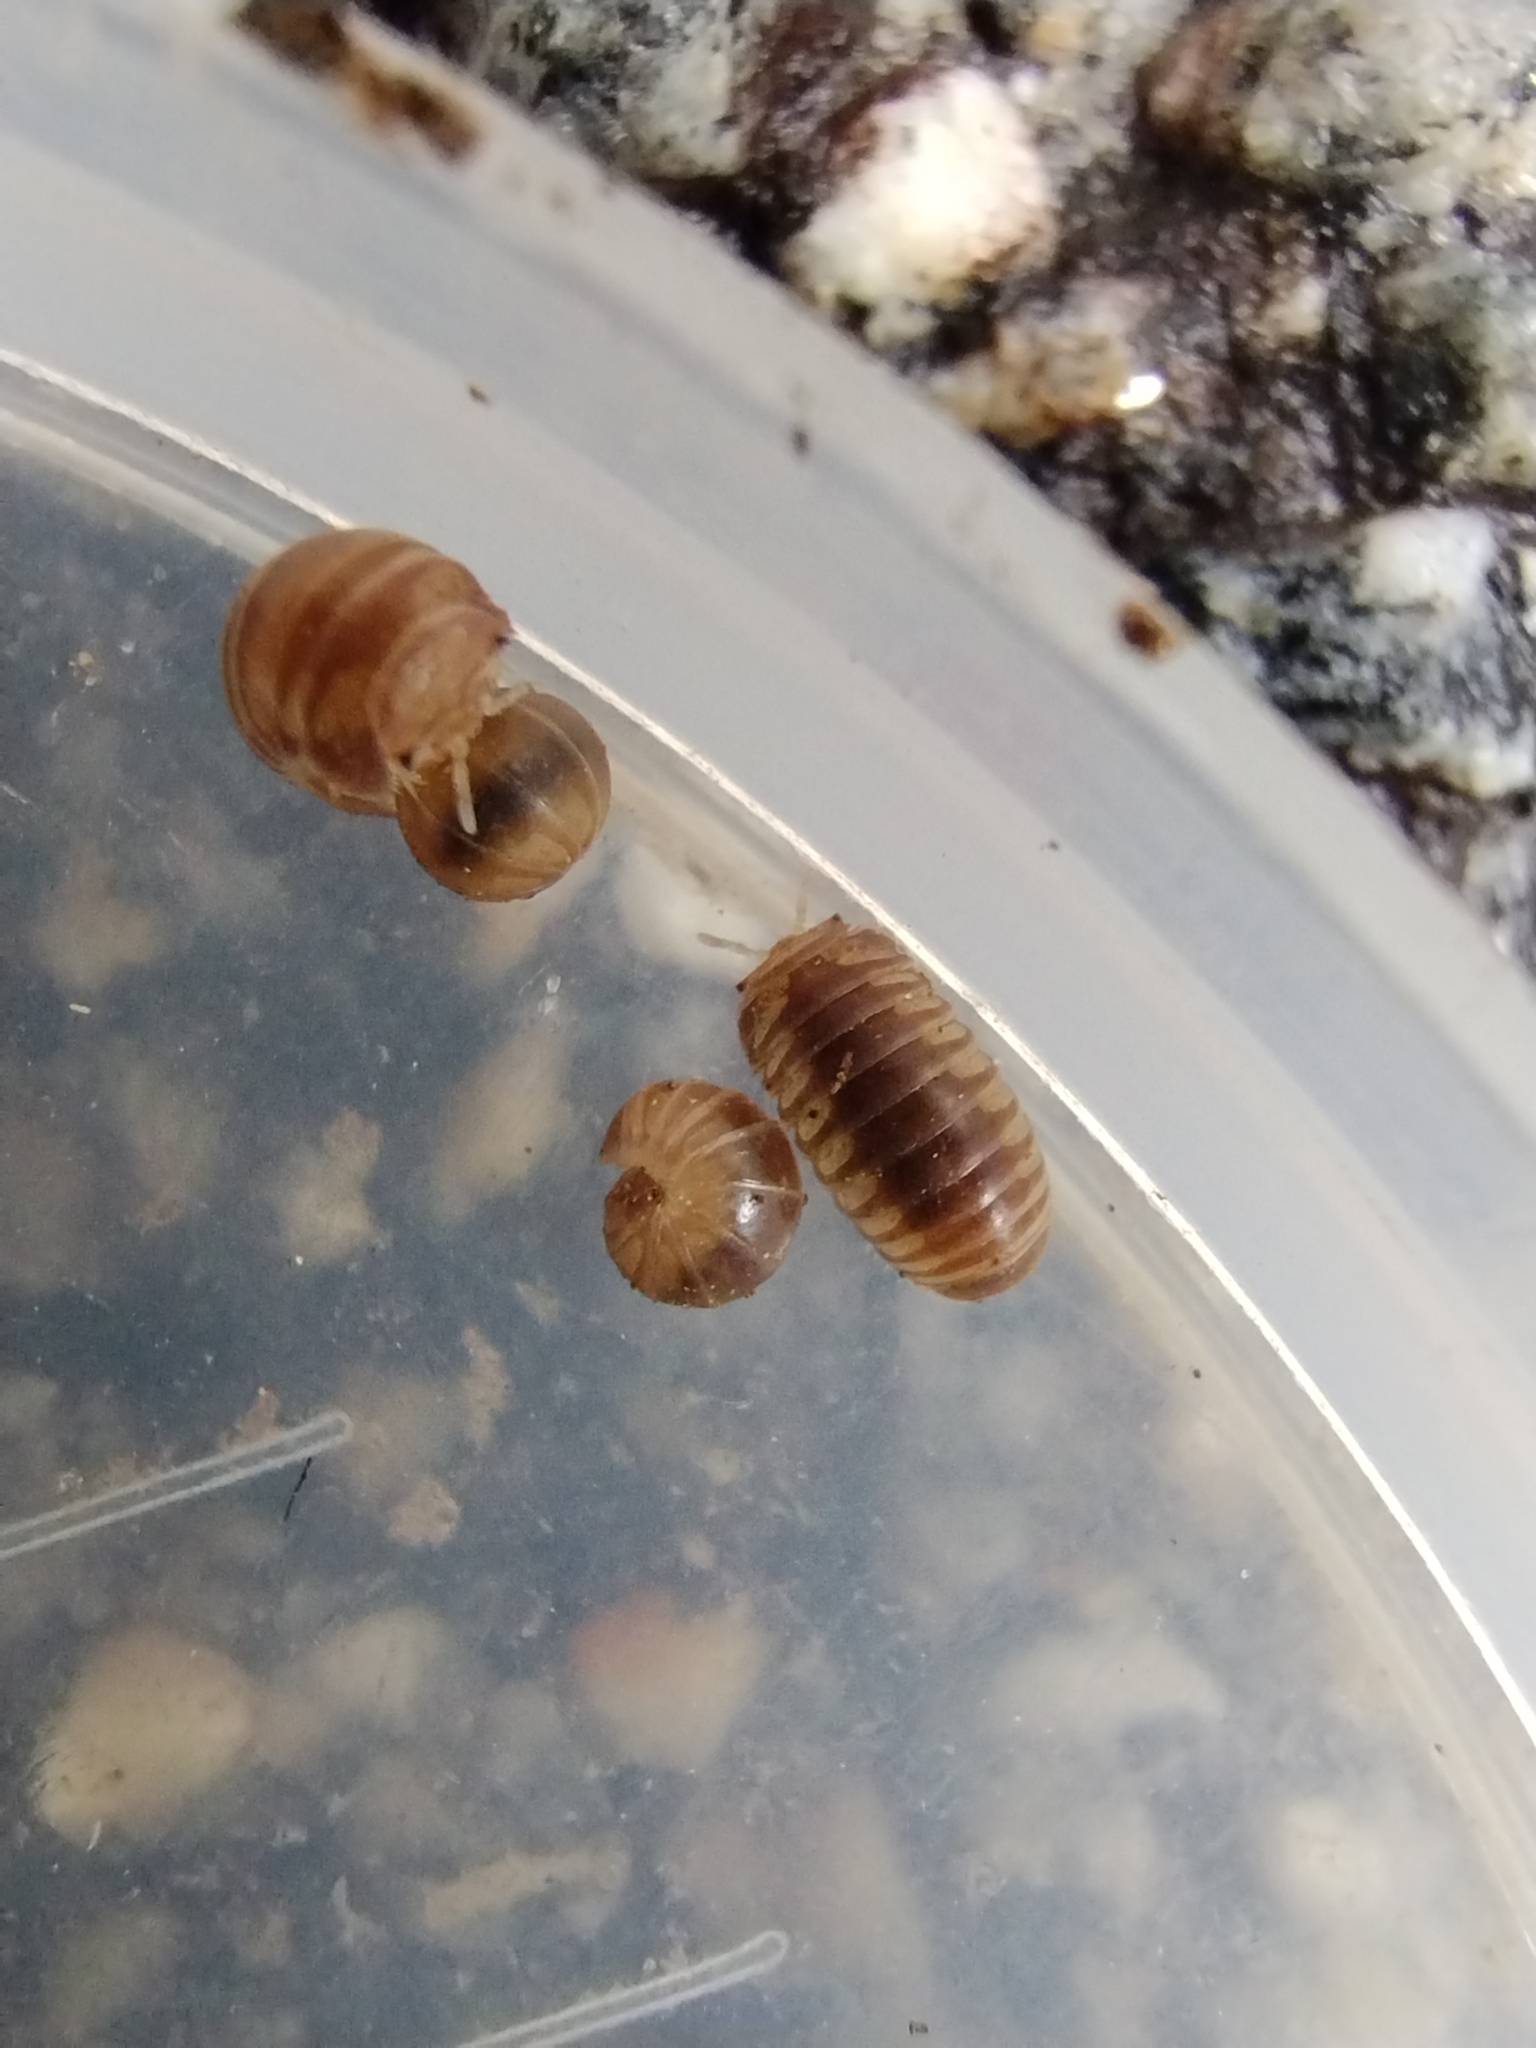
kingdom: Animalia
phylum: Arthropoda
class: Diplopoda
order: Glomerida
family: Glomeridae
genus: Onomeris
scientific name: Onomeris underwoodii
